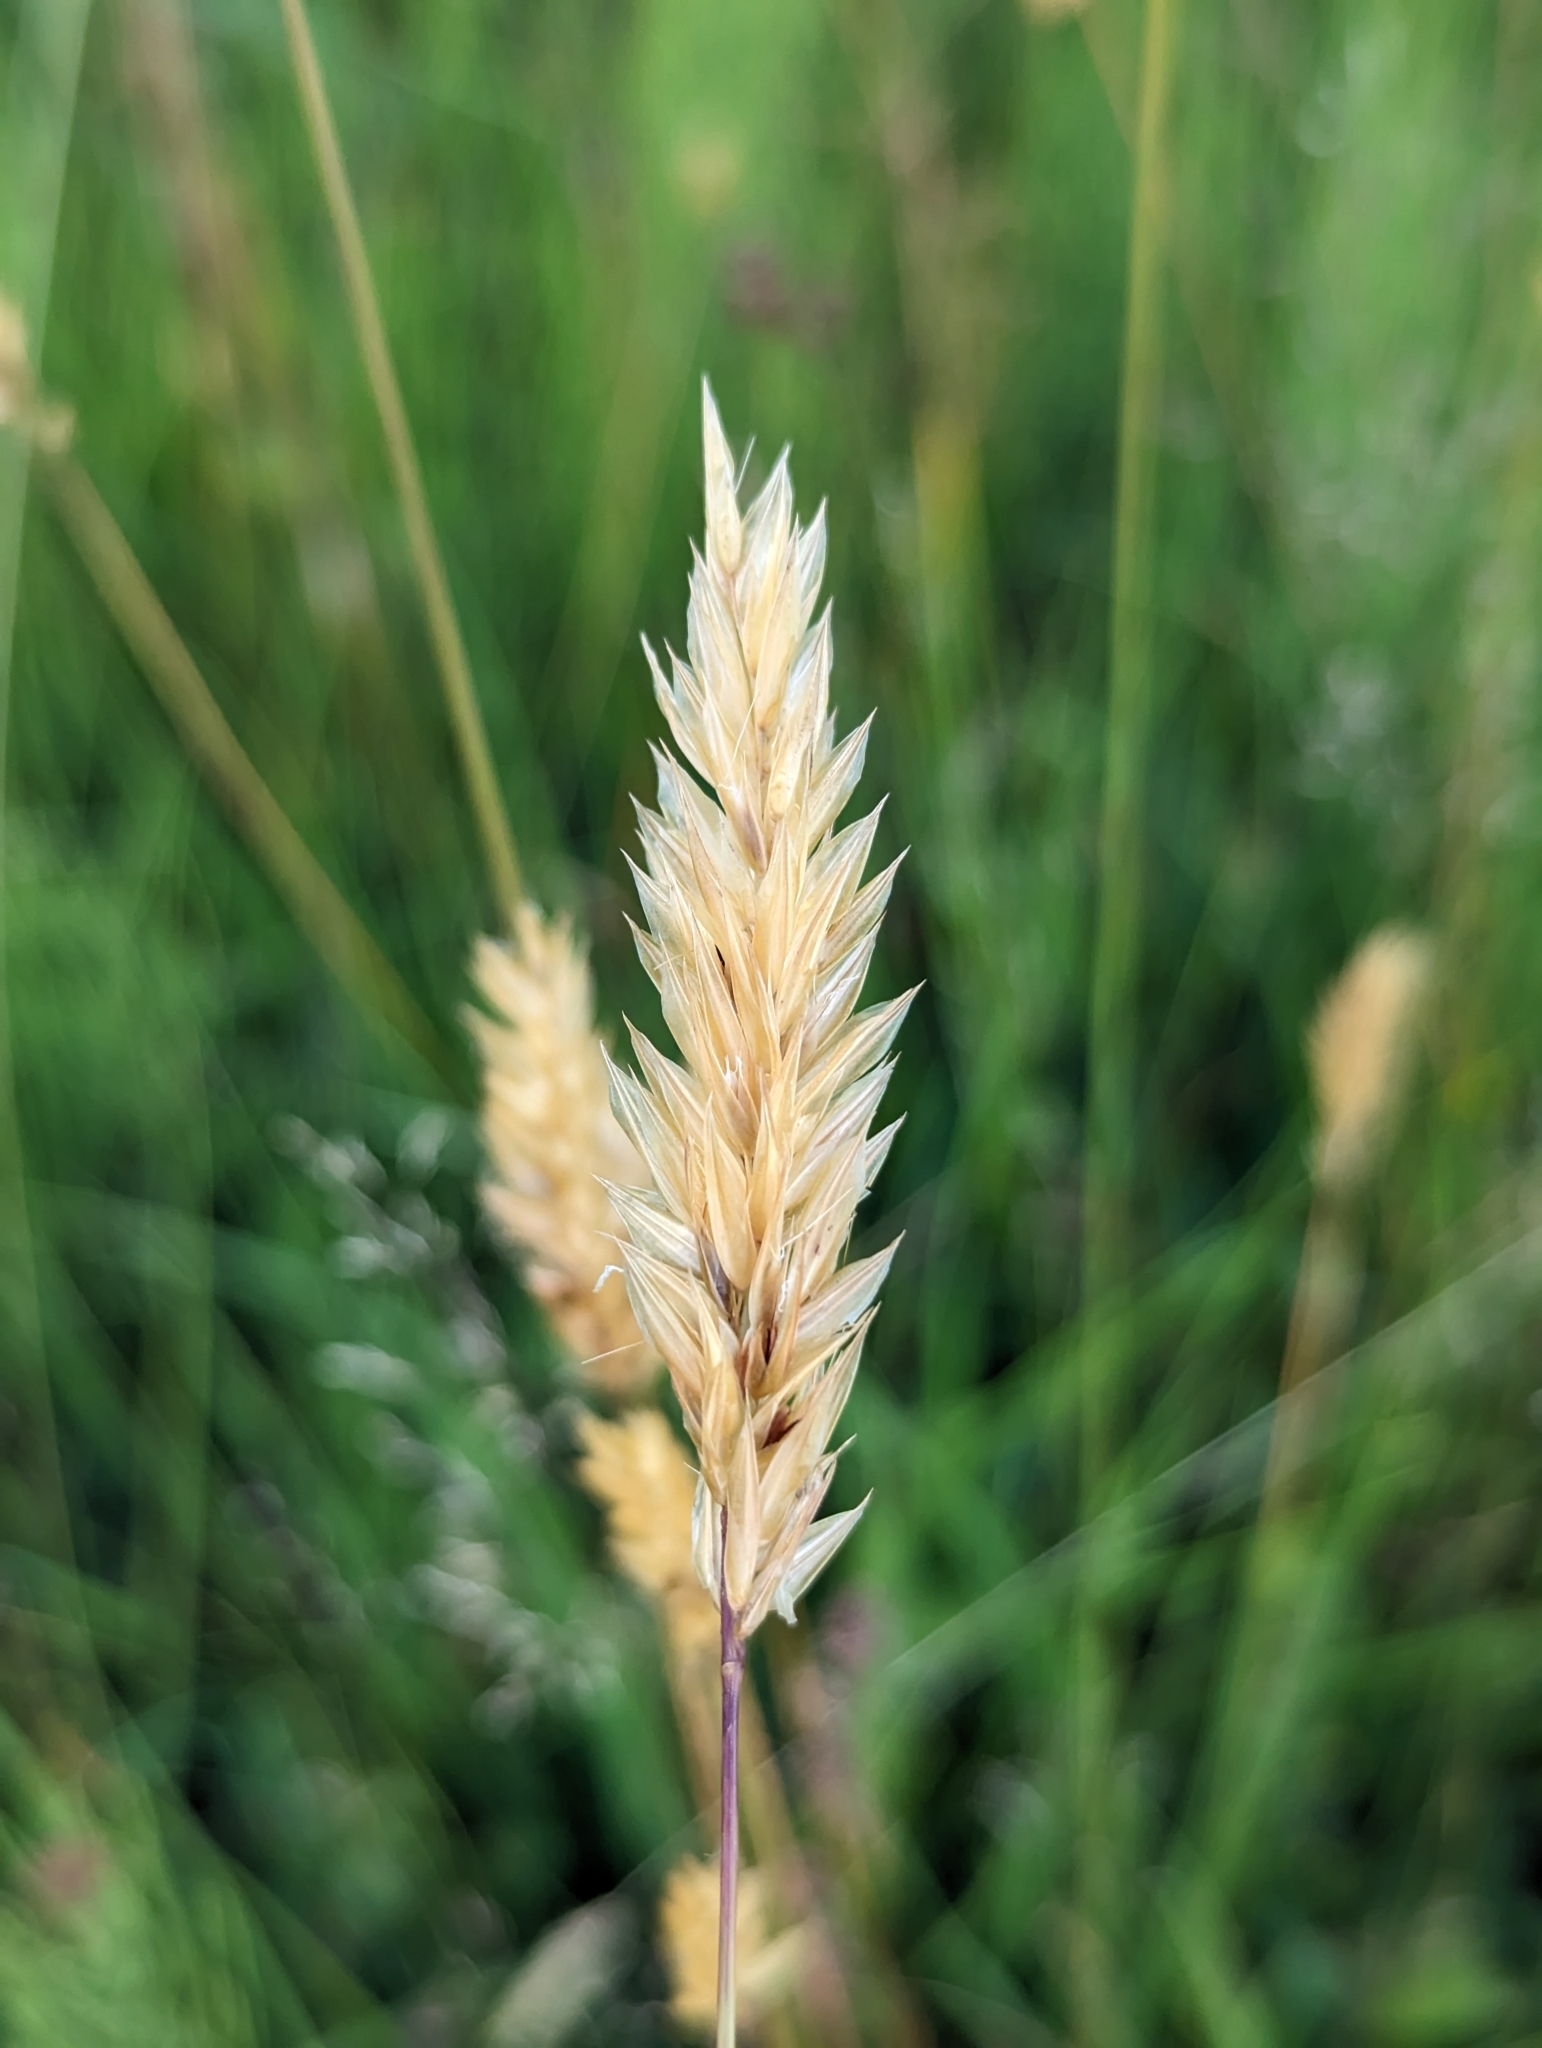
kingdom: Plantae
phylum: Tracheophyta
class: Liliopsida
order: Poales
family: Poaceae
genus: Anthoxanthum
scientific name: Anthoxanthum odoratum
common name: Sweet vernalgrass
